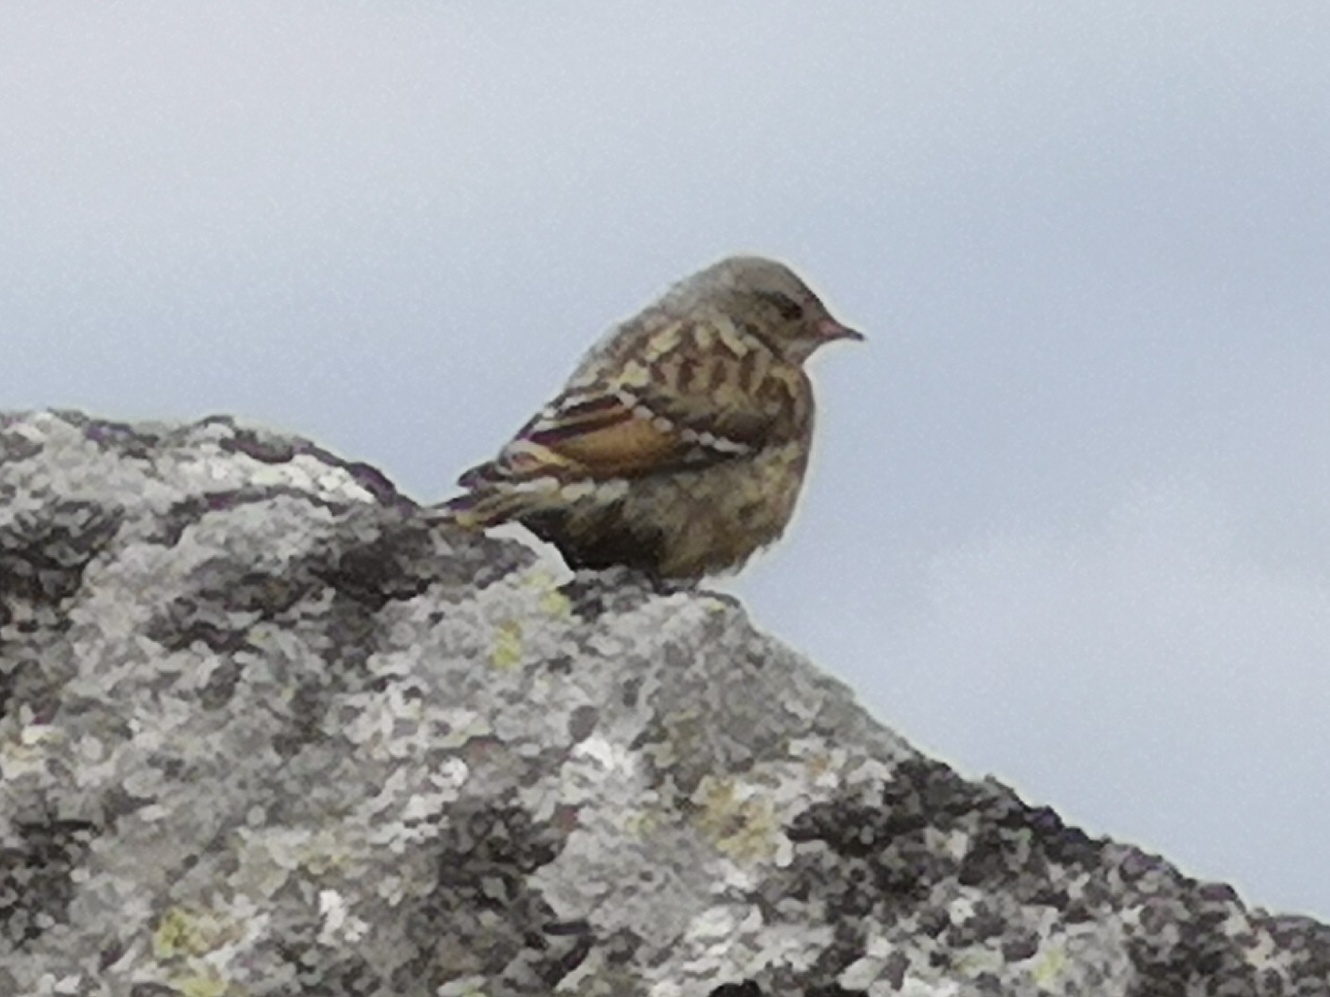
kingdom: Animalia
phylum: Chordata
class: Aves
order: Passeriformes
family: Prunellidae
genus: Prunella
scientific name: Prunella collaris
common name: Alpine accentor
